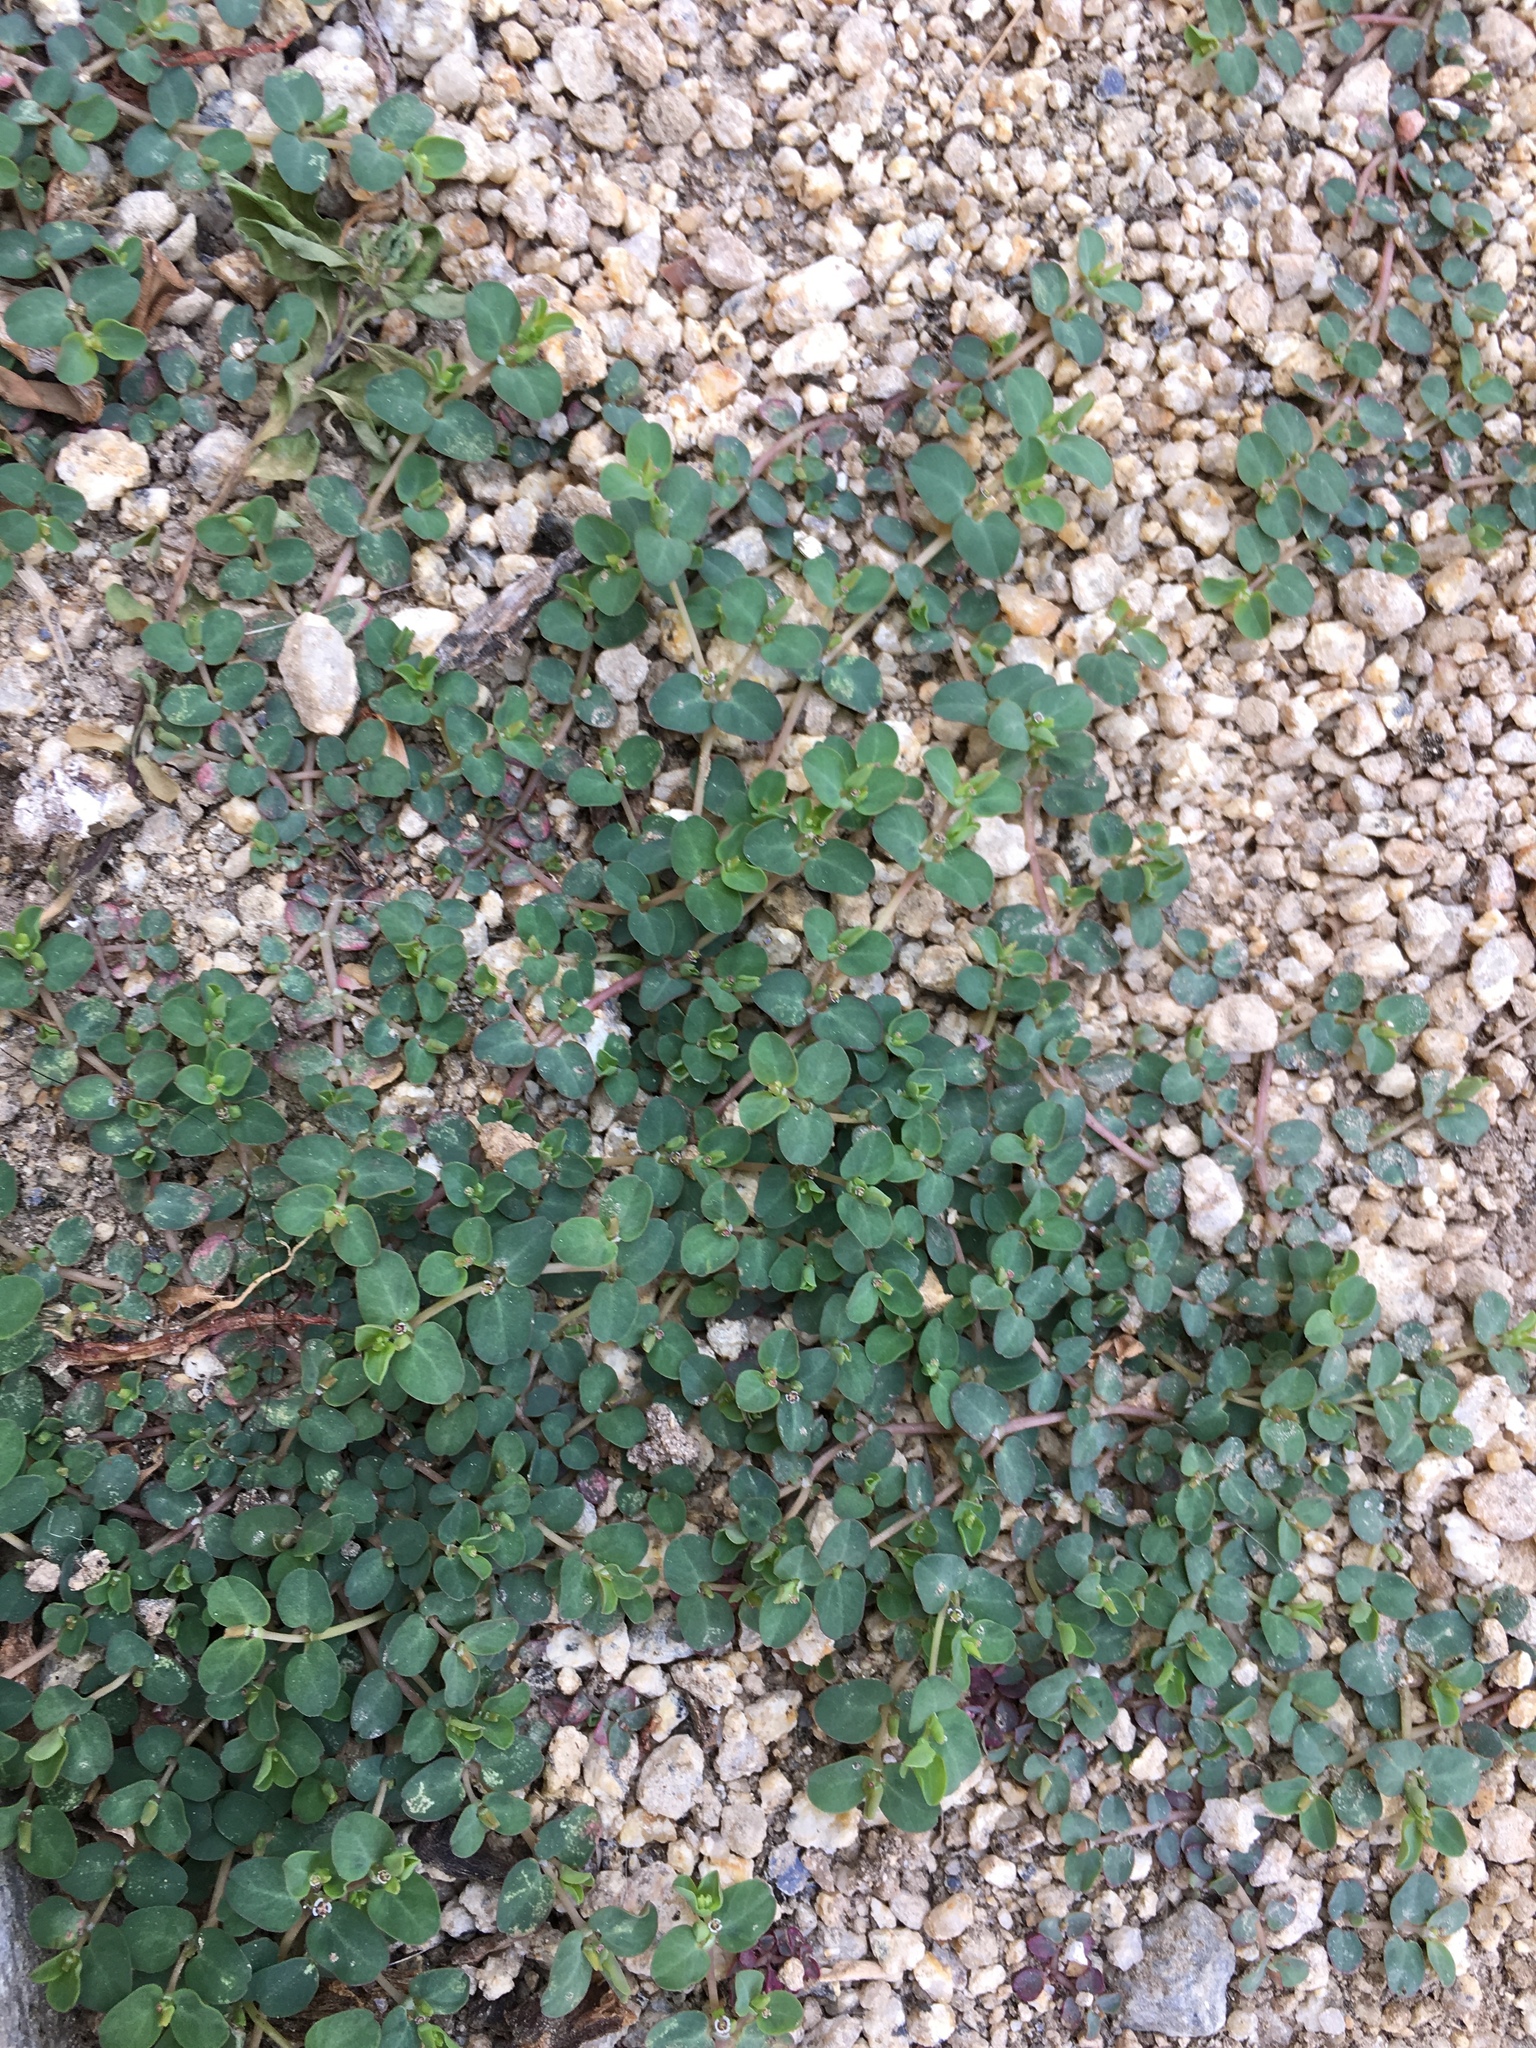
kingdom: Plantae
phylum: Tracheophyta
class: Magnoliopsida
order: Malpighiales
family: Euphorbiaceae
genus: Euphorbia
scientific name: Euphorbia serpens
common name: Matted sandmat
